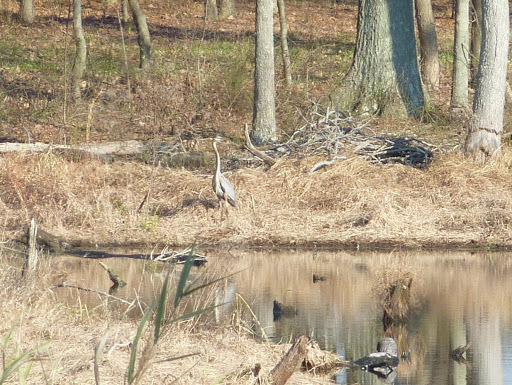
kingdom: Animalia
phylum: Chordata
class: Aves
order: Pelecaniformes
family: Ardeidae
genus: Ardea
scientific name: Ardea herodias
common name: Great blue heron
